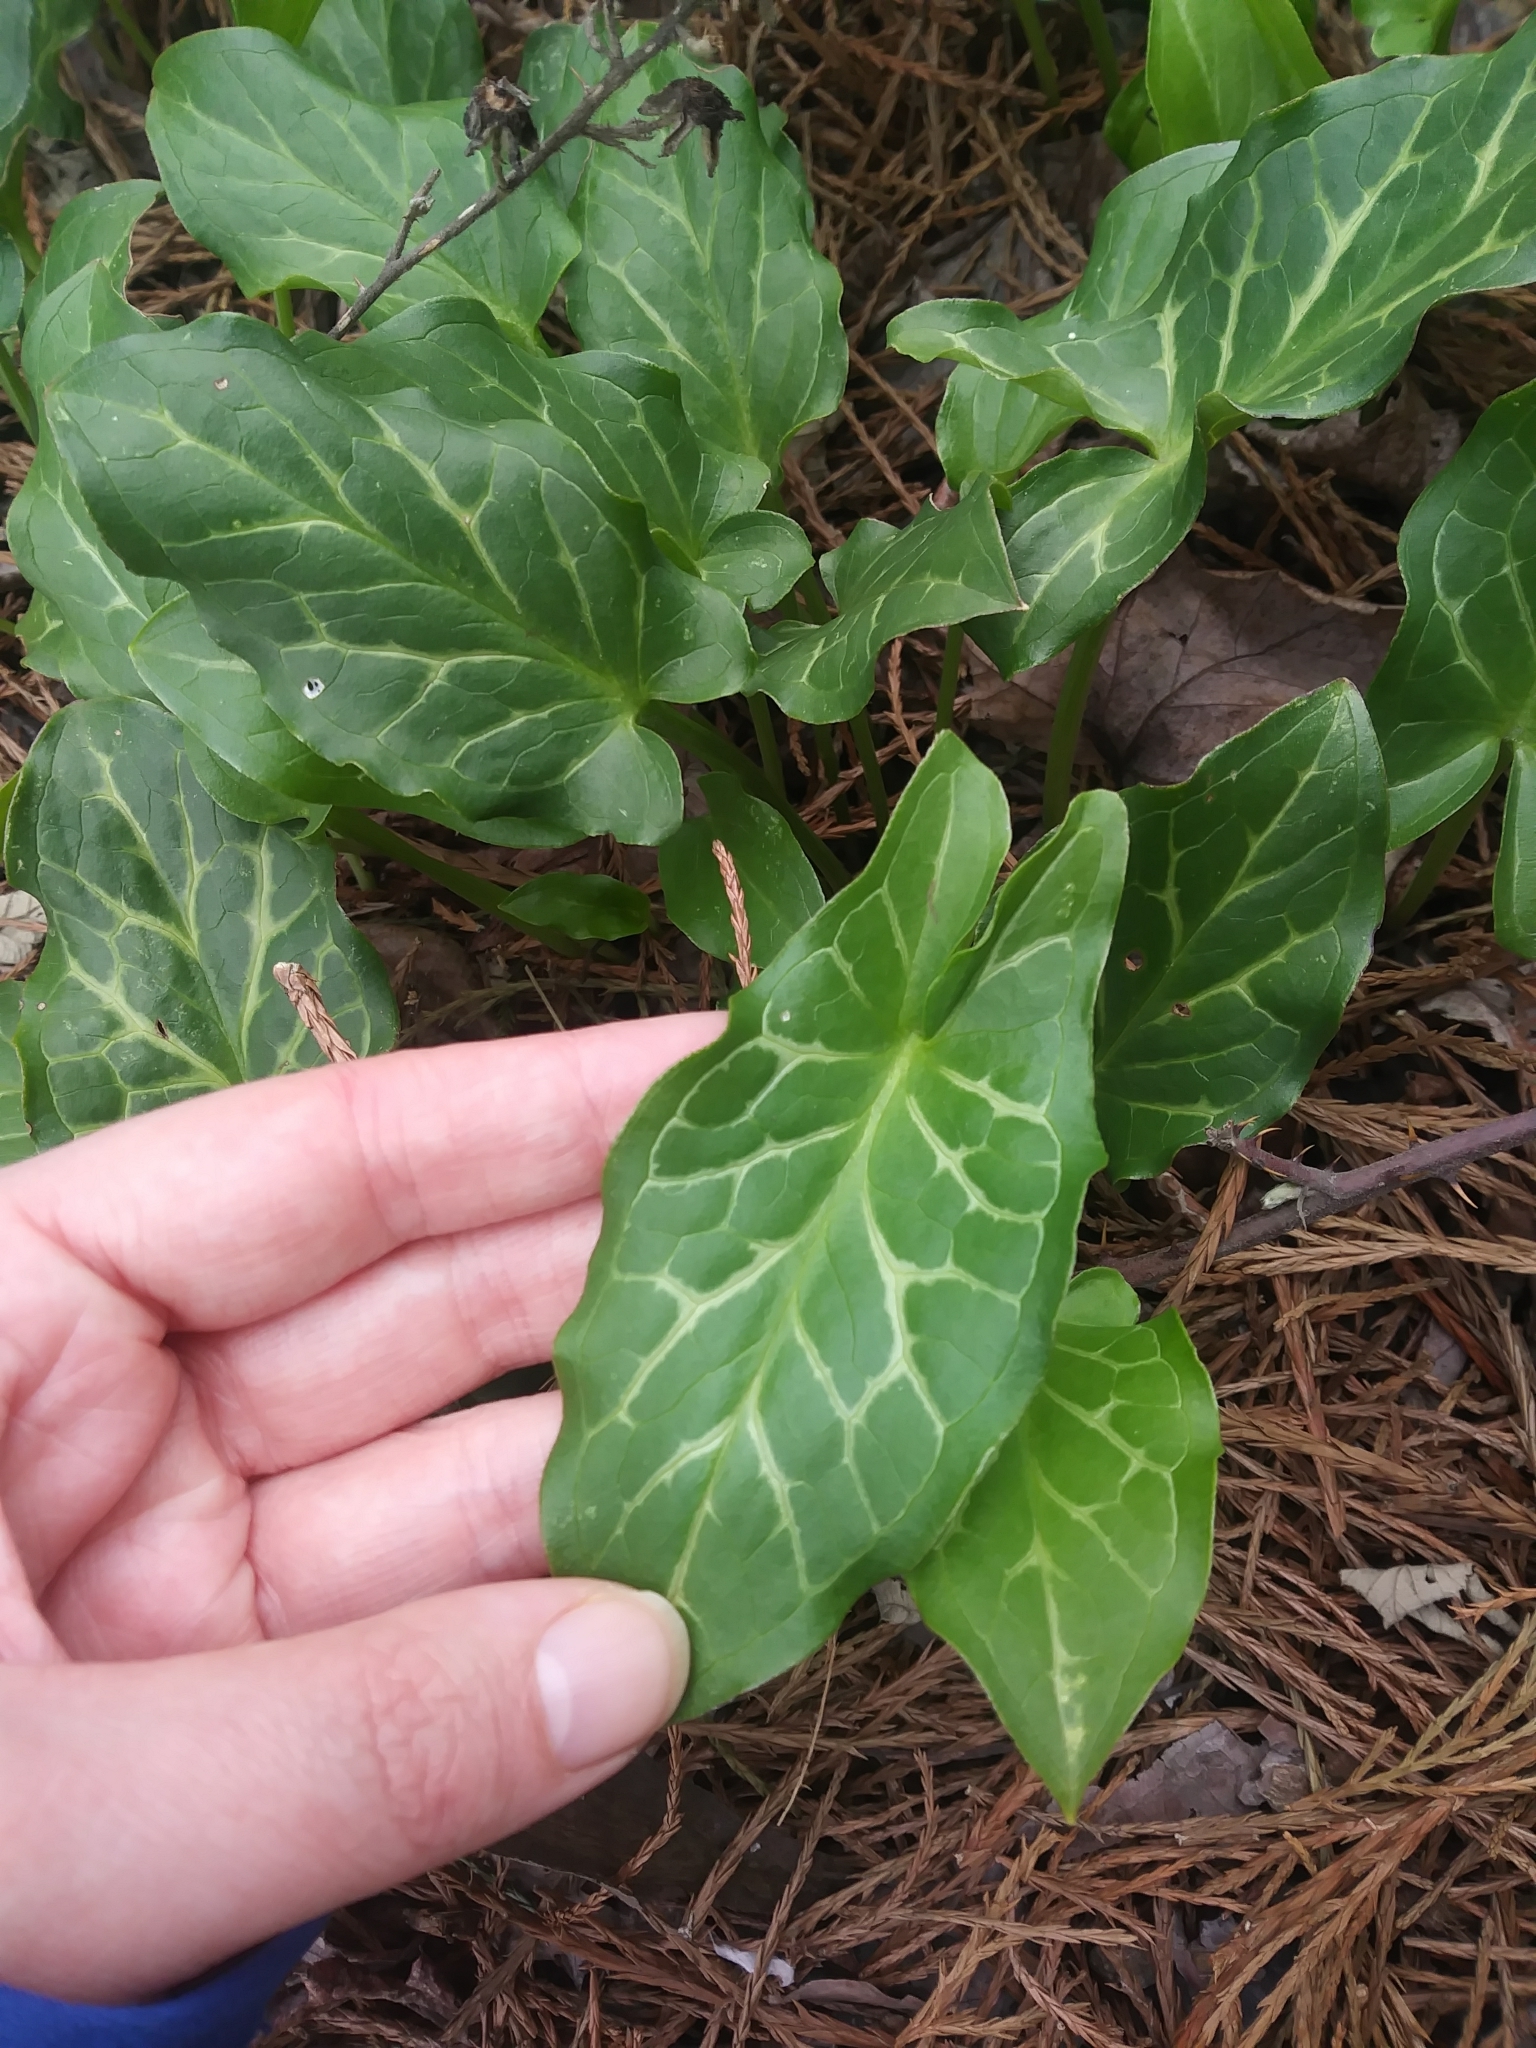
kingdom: Plantae
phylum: Tracheophyta
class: Liliopsida
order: Alismatales
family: Araceae
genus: Arum
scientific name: Arum italicum
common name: Italian lords-and-ladies
